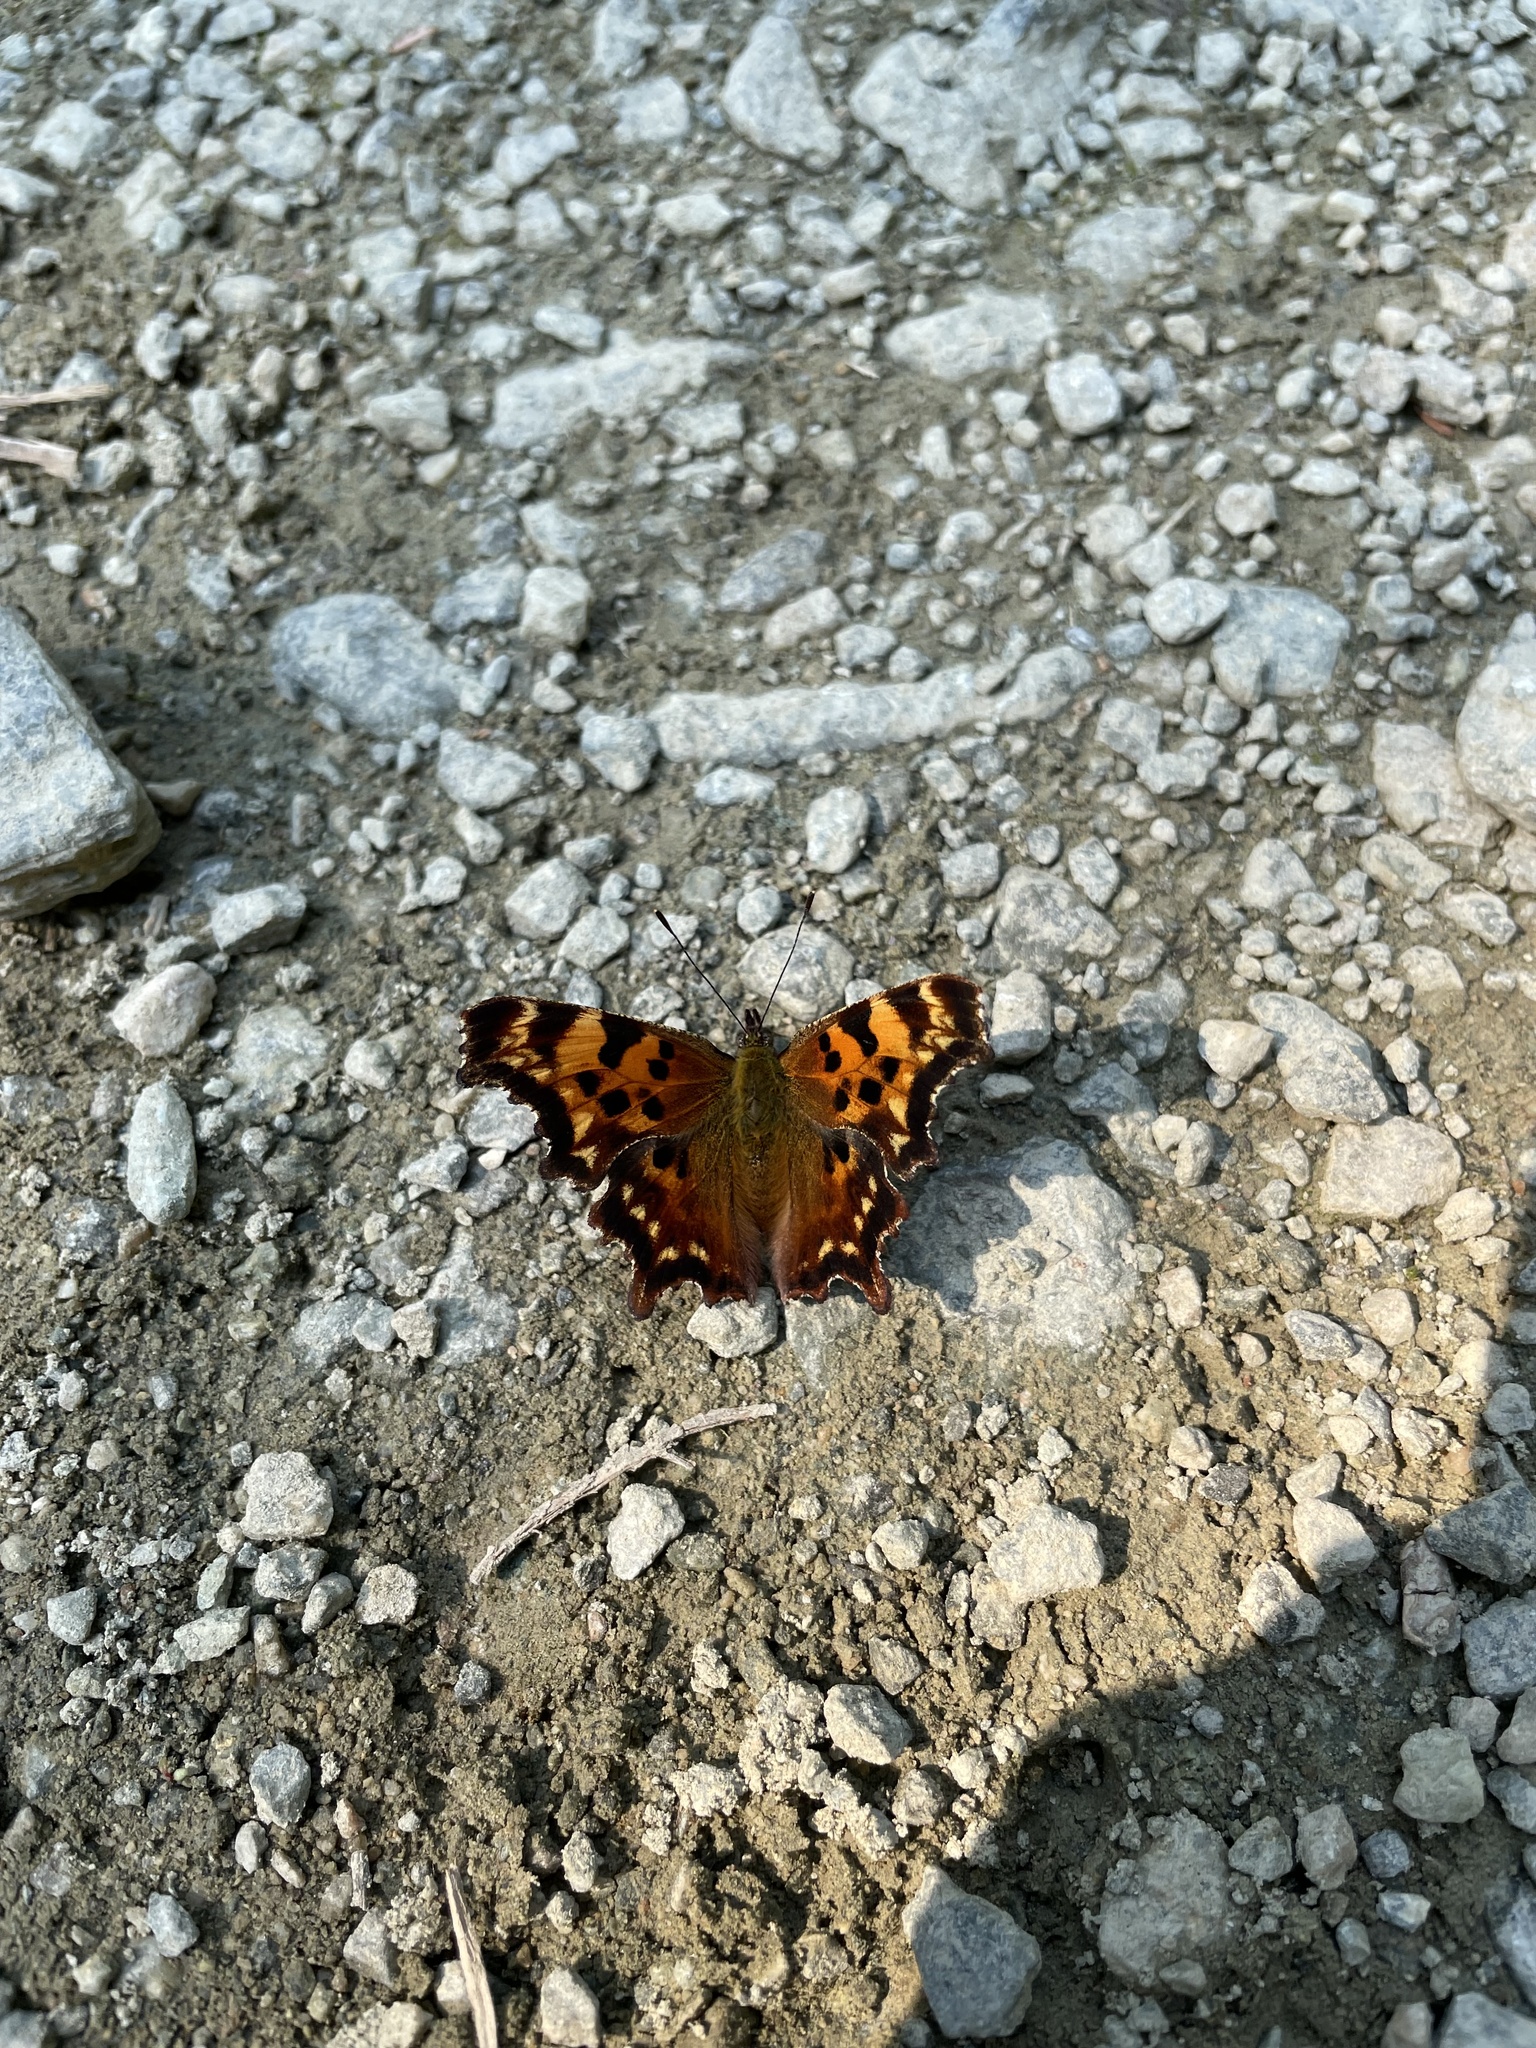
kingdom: Animalia
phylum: Arthropoda
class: Insecta
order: Lepidoptera
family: Nymphalidae
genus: Polygonia
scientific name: Polygonia faunus
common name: Green comma
